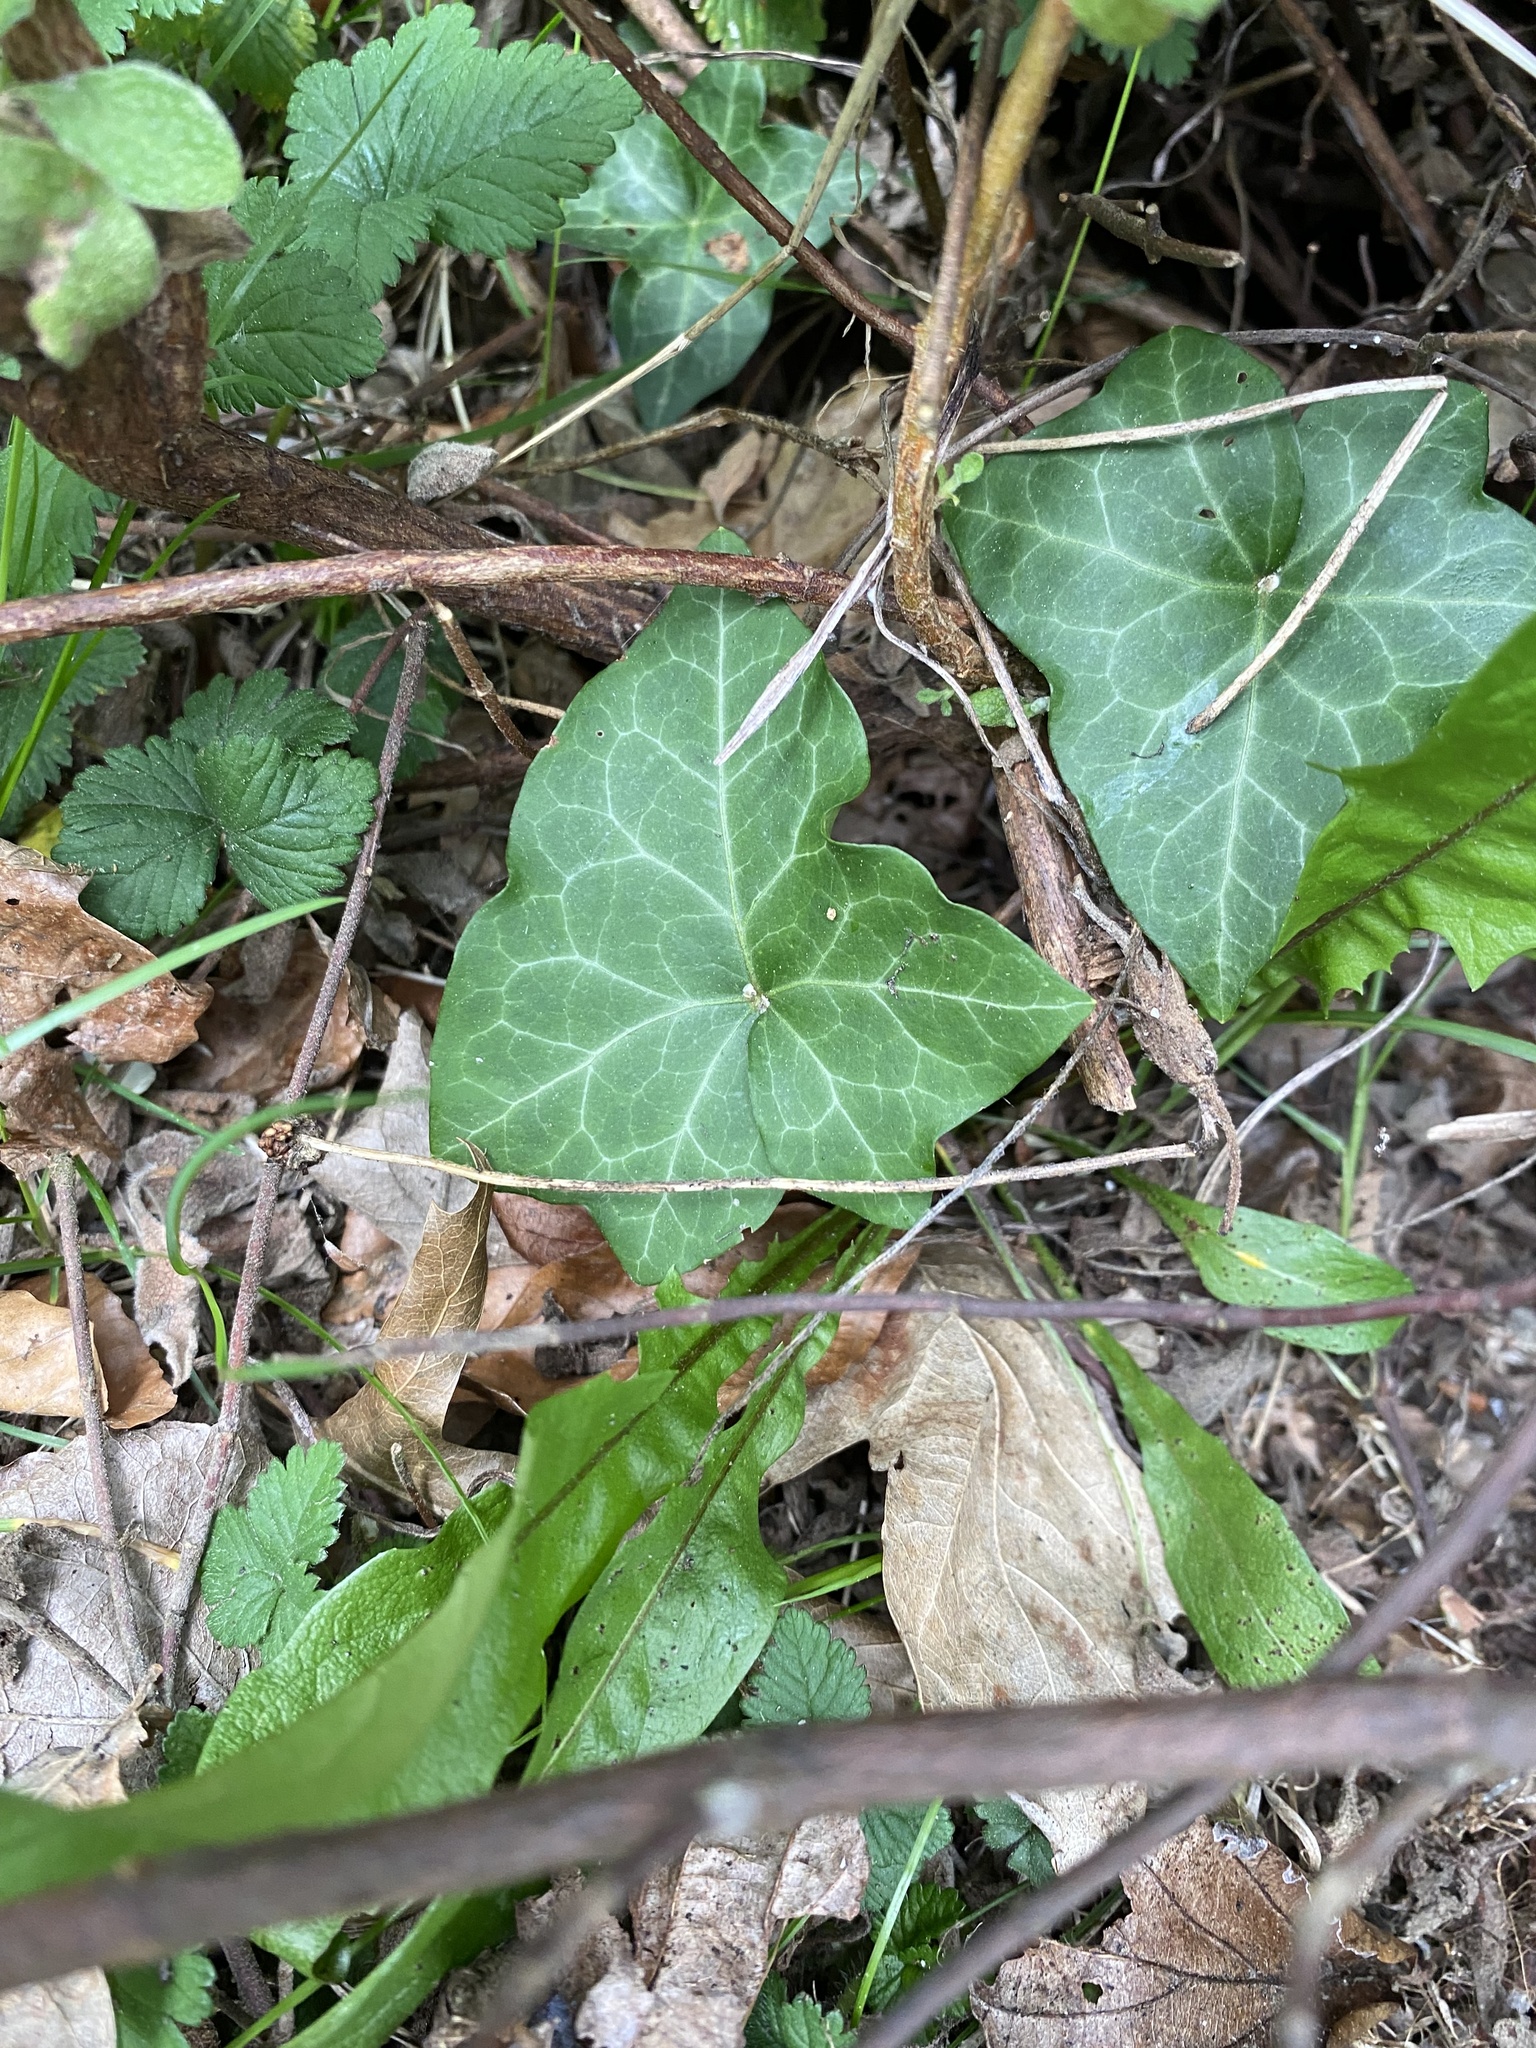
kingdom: Plantae
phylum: Tracheophyta
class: Magnoliopsida
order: Apiales
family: Araliaceae
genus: Hedera
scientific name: Hedera helix
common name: Ivy
